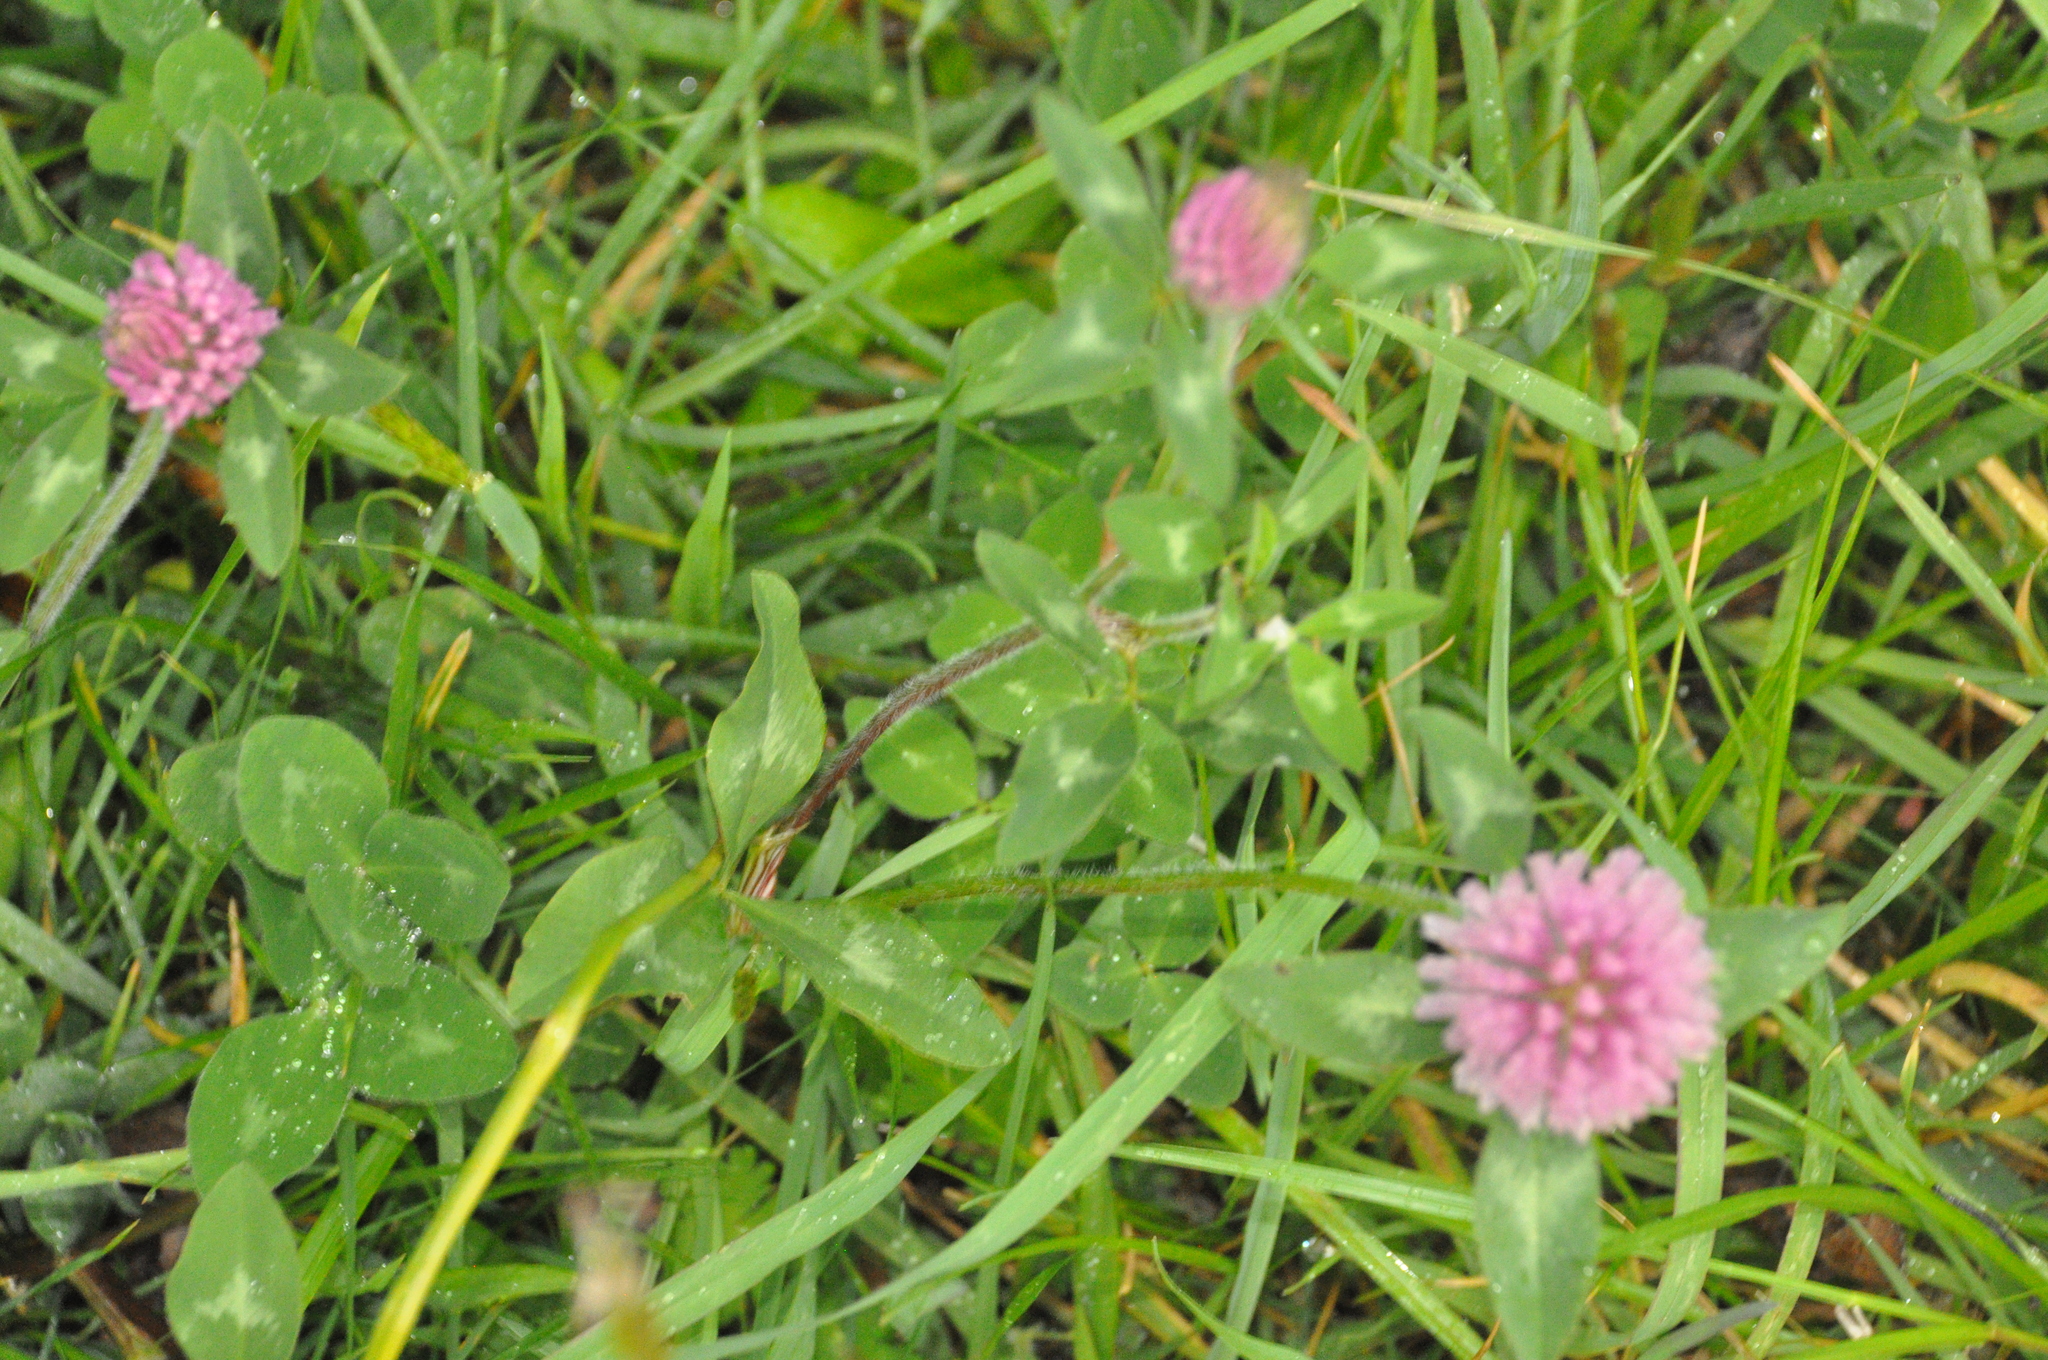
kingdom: Plantae
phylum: Tracheophyta
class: Magnoliopsida
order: Fabales
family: Fabaceae
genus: Trifolium
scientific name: Trifolium pratense
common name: Red clover
